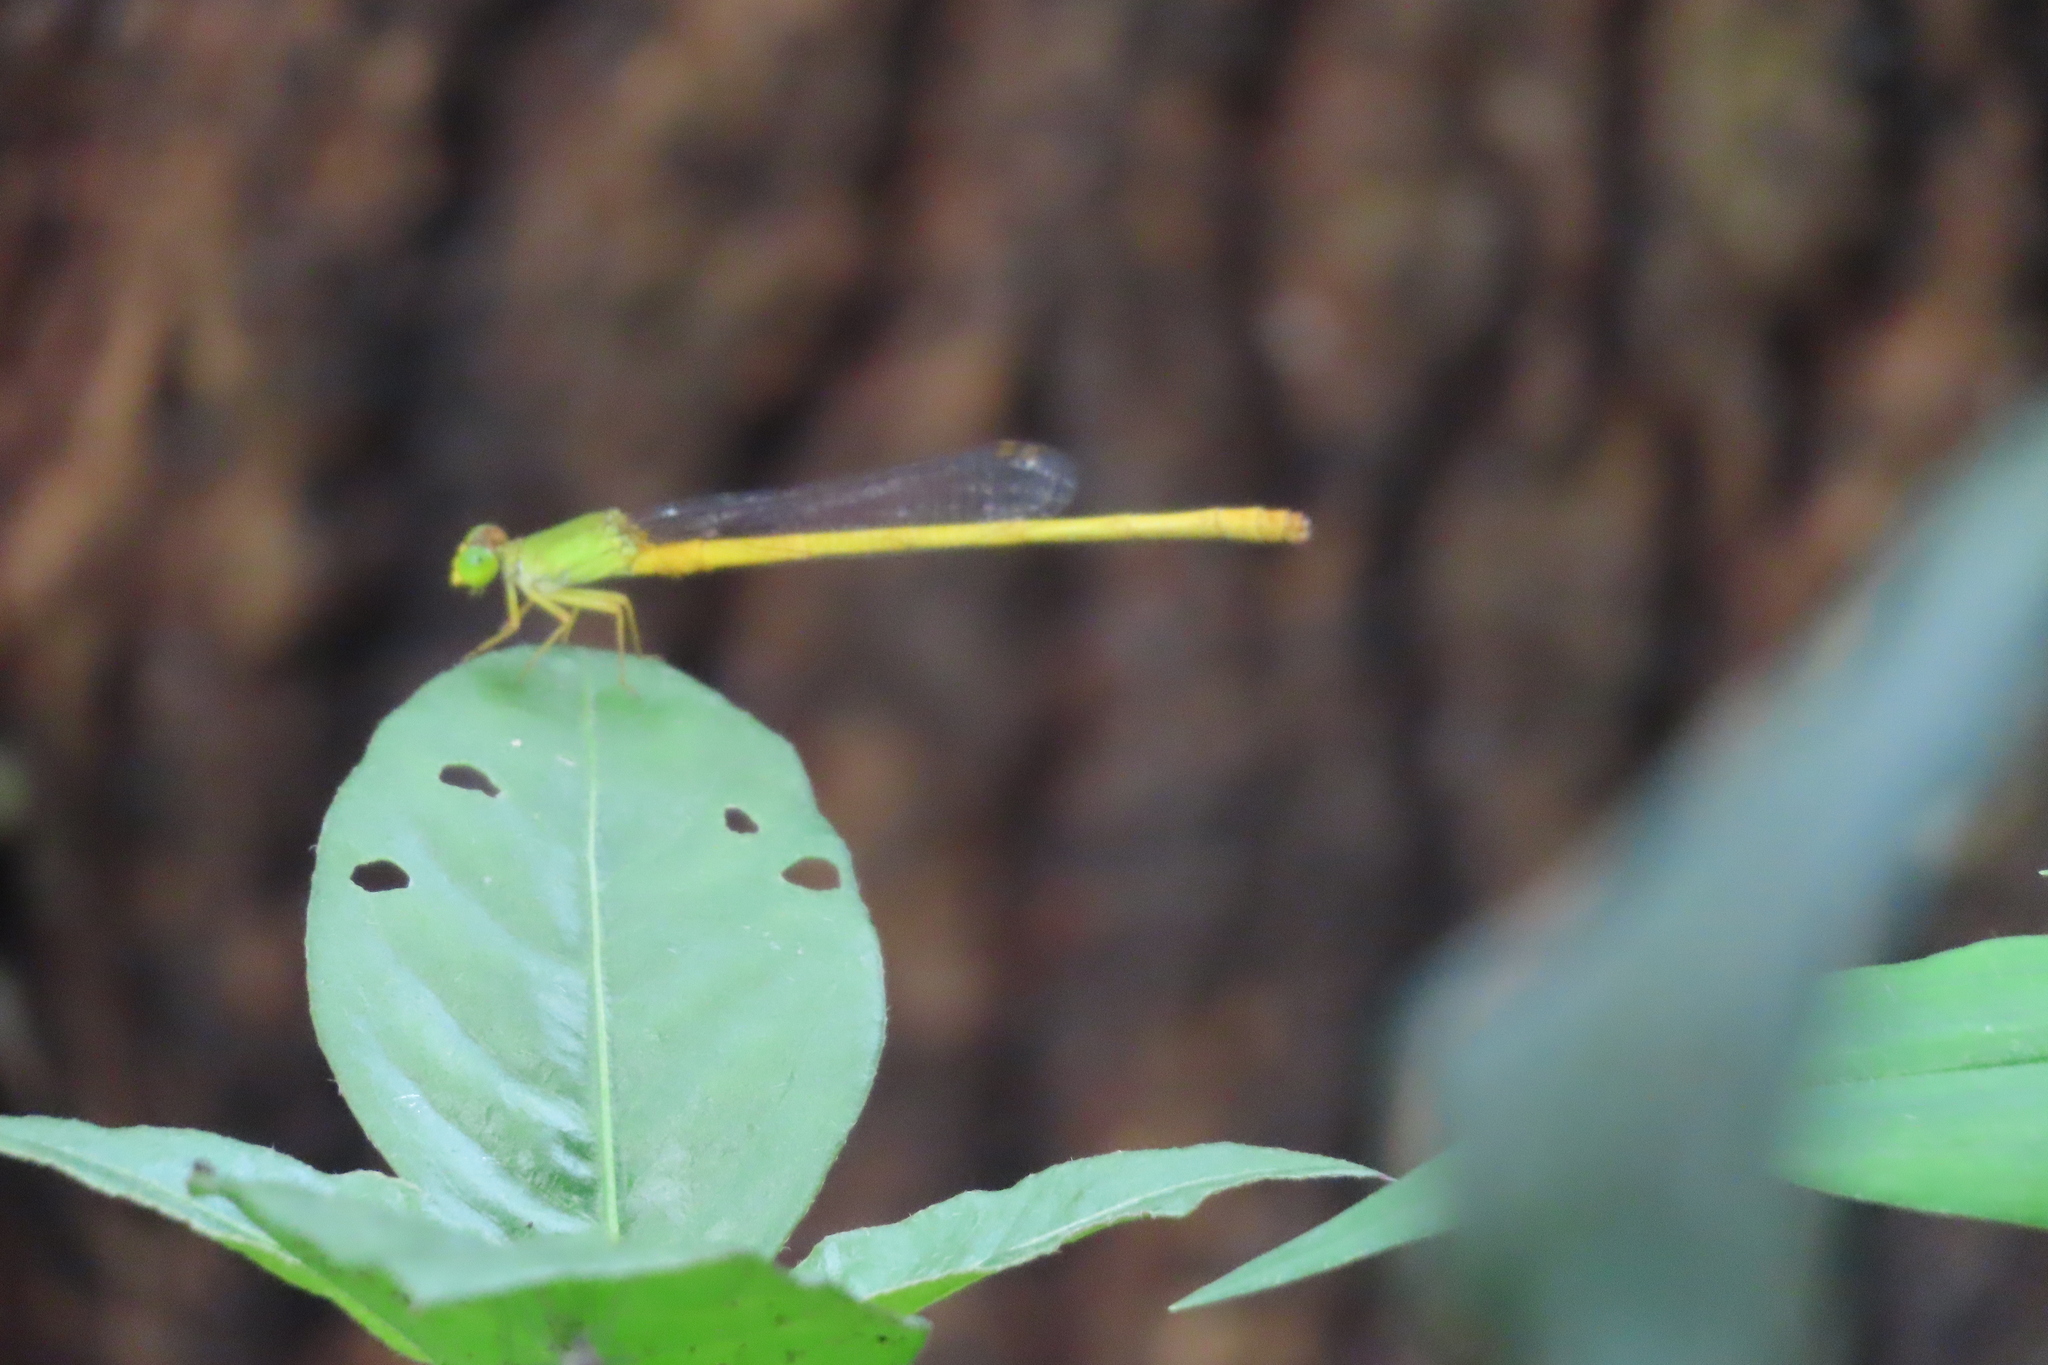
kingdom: Animalia
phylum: Arthropoda
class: Insecta
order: Odonata
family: Coenagrionidae
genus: Ceriagrion
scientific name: Ceriagrion coromandelianum
